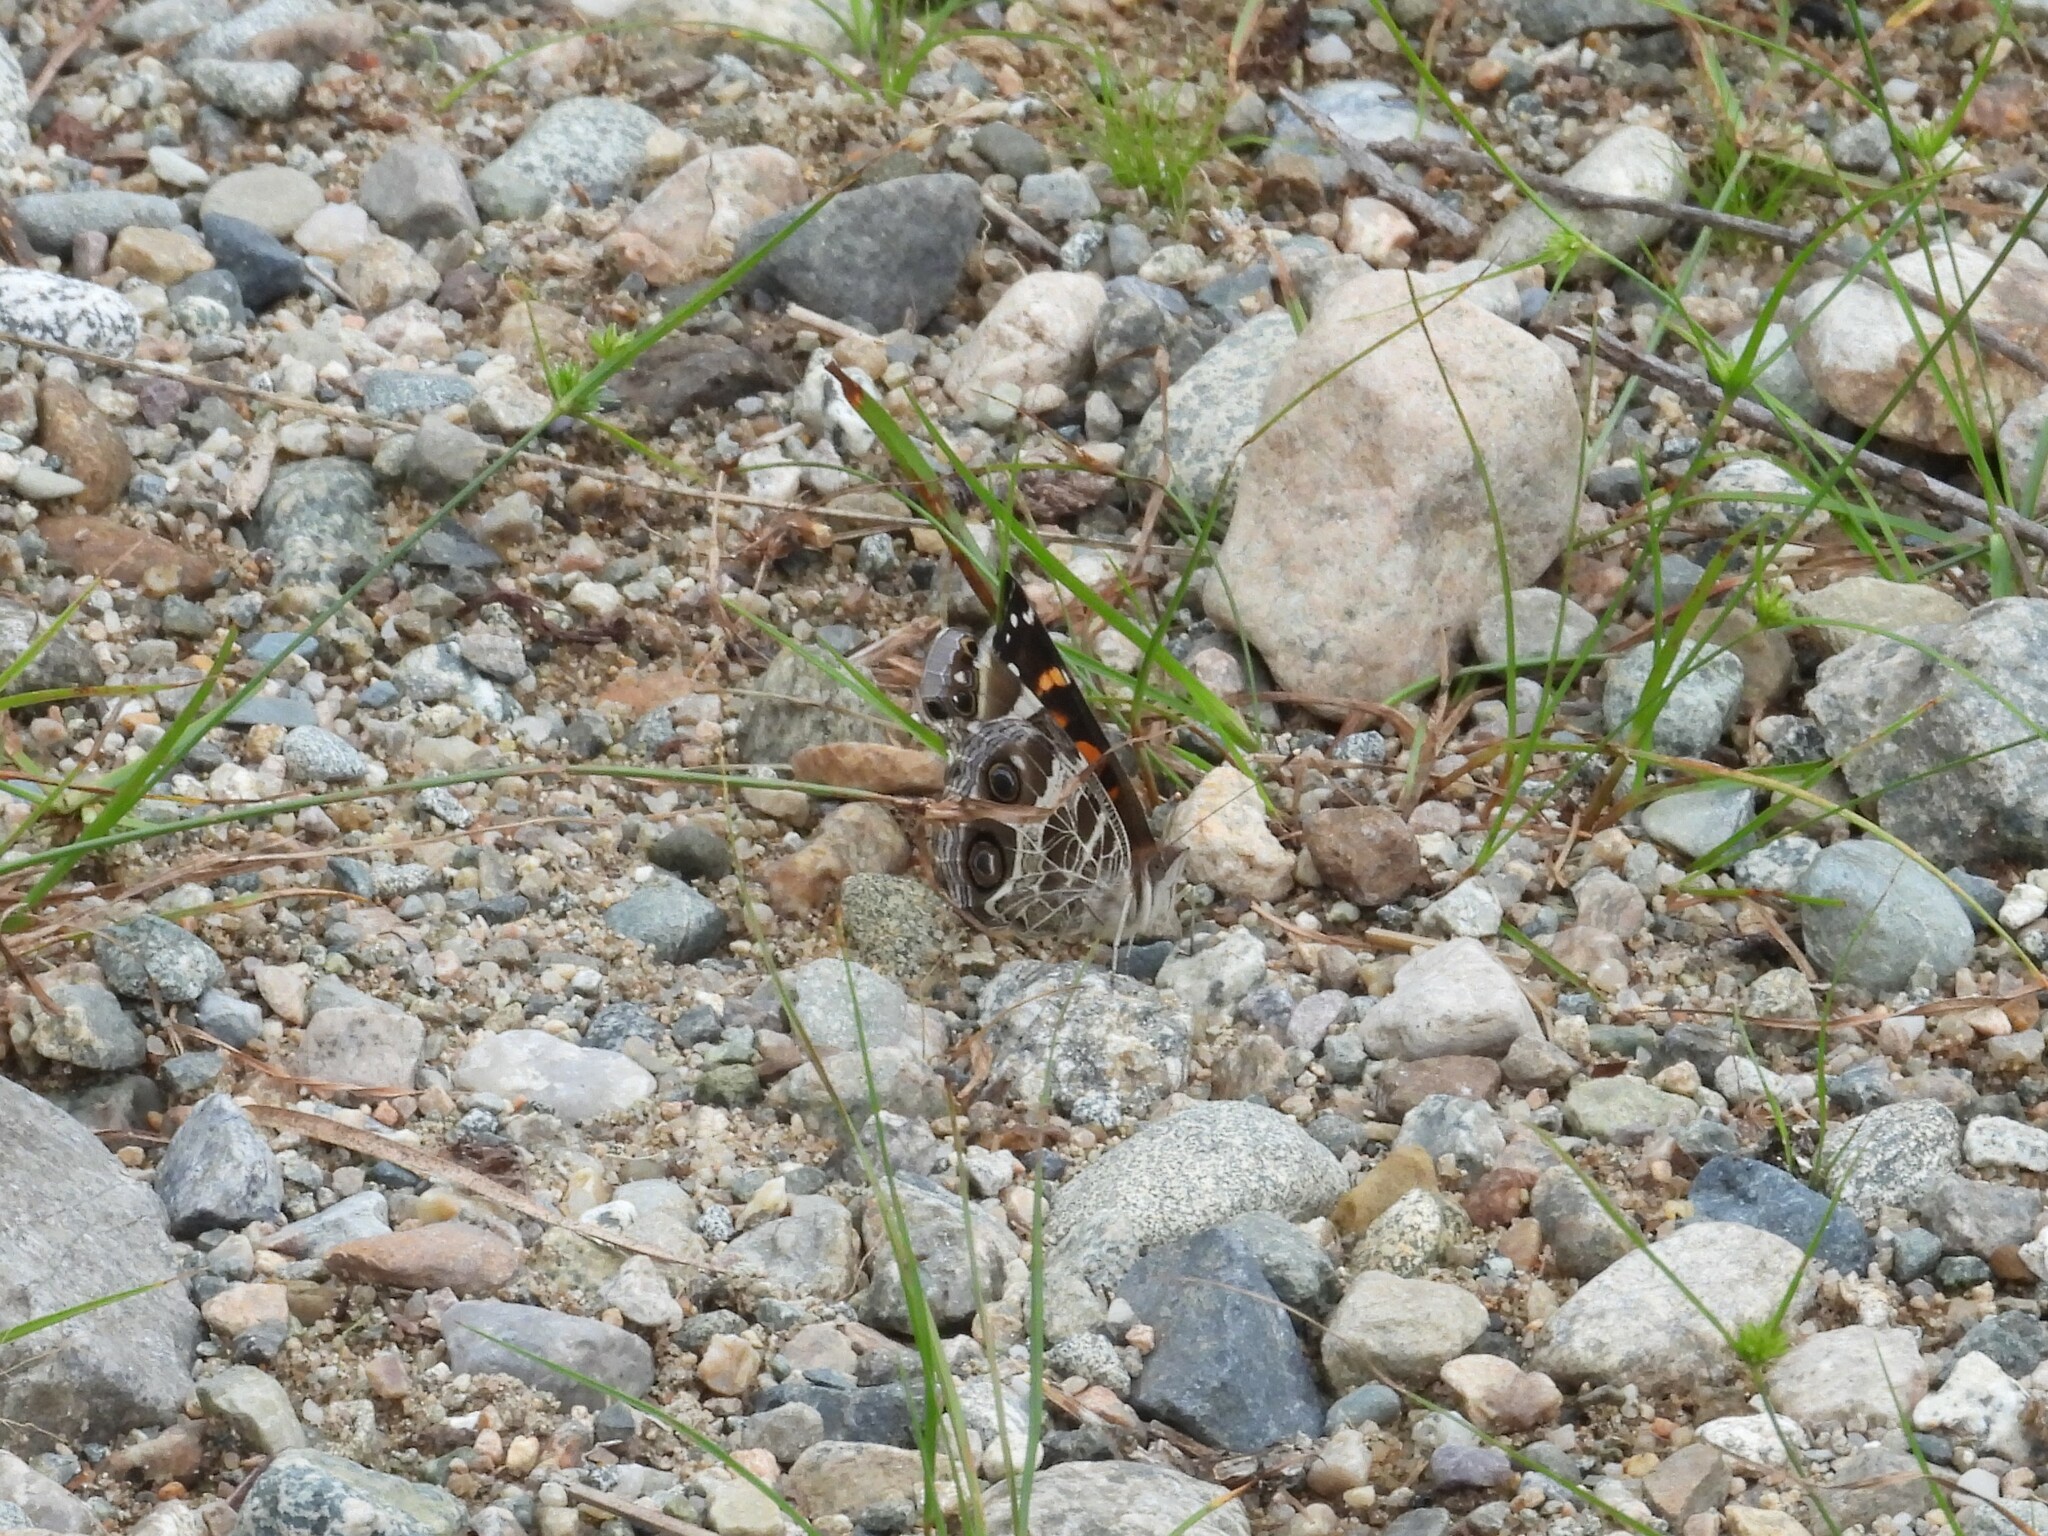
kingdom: Animalia
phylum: Arthropoda
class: Insecta
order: Lepidoptera
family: Nymphalidae
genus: Vanessa
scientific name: Vanessa virginiensis
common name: American lady
